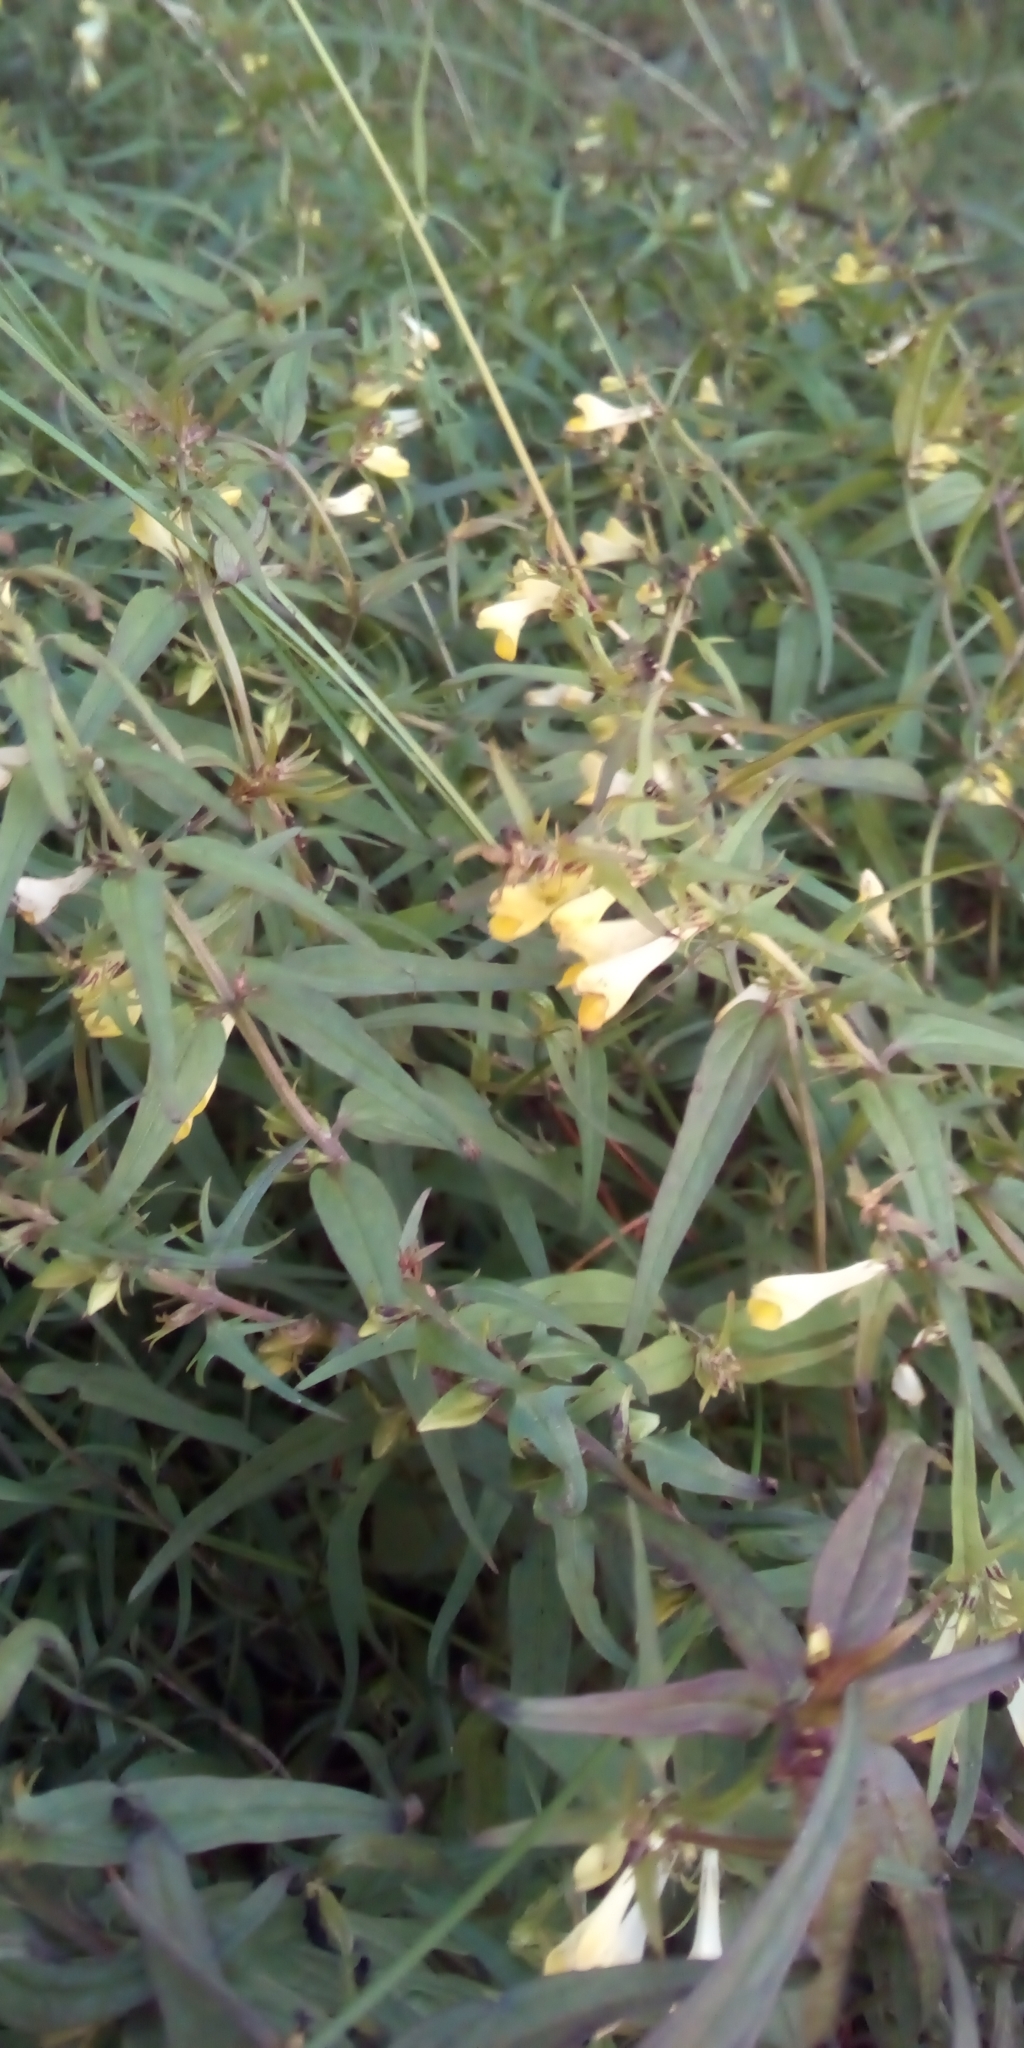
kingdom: Plantae
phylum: Tracheophyta
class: Magnoliopsida
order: Lamiales
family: Orobanchaceae
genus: Melampyrum
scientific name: Melampyrum pratense
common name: Common cow-wheat
